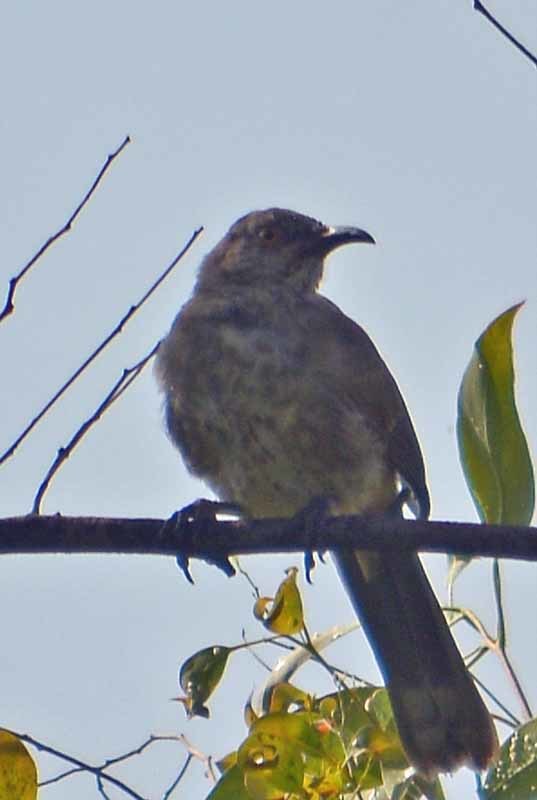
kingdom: Animalia
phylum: Chordata
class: Aves
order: Passeriformes
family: Mimidae
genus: Toxostoma
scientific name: Toxostoma curvirostre
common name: Curve-billed thrasher
